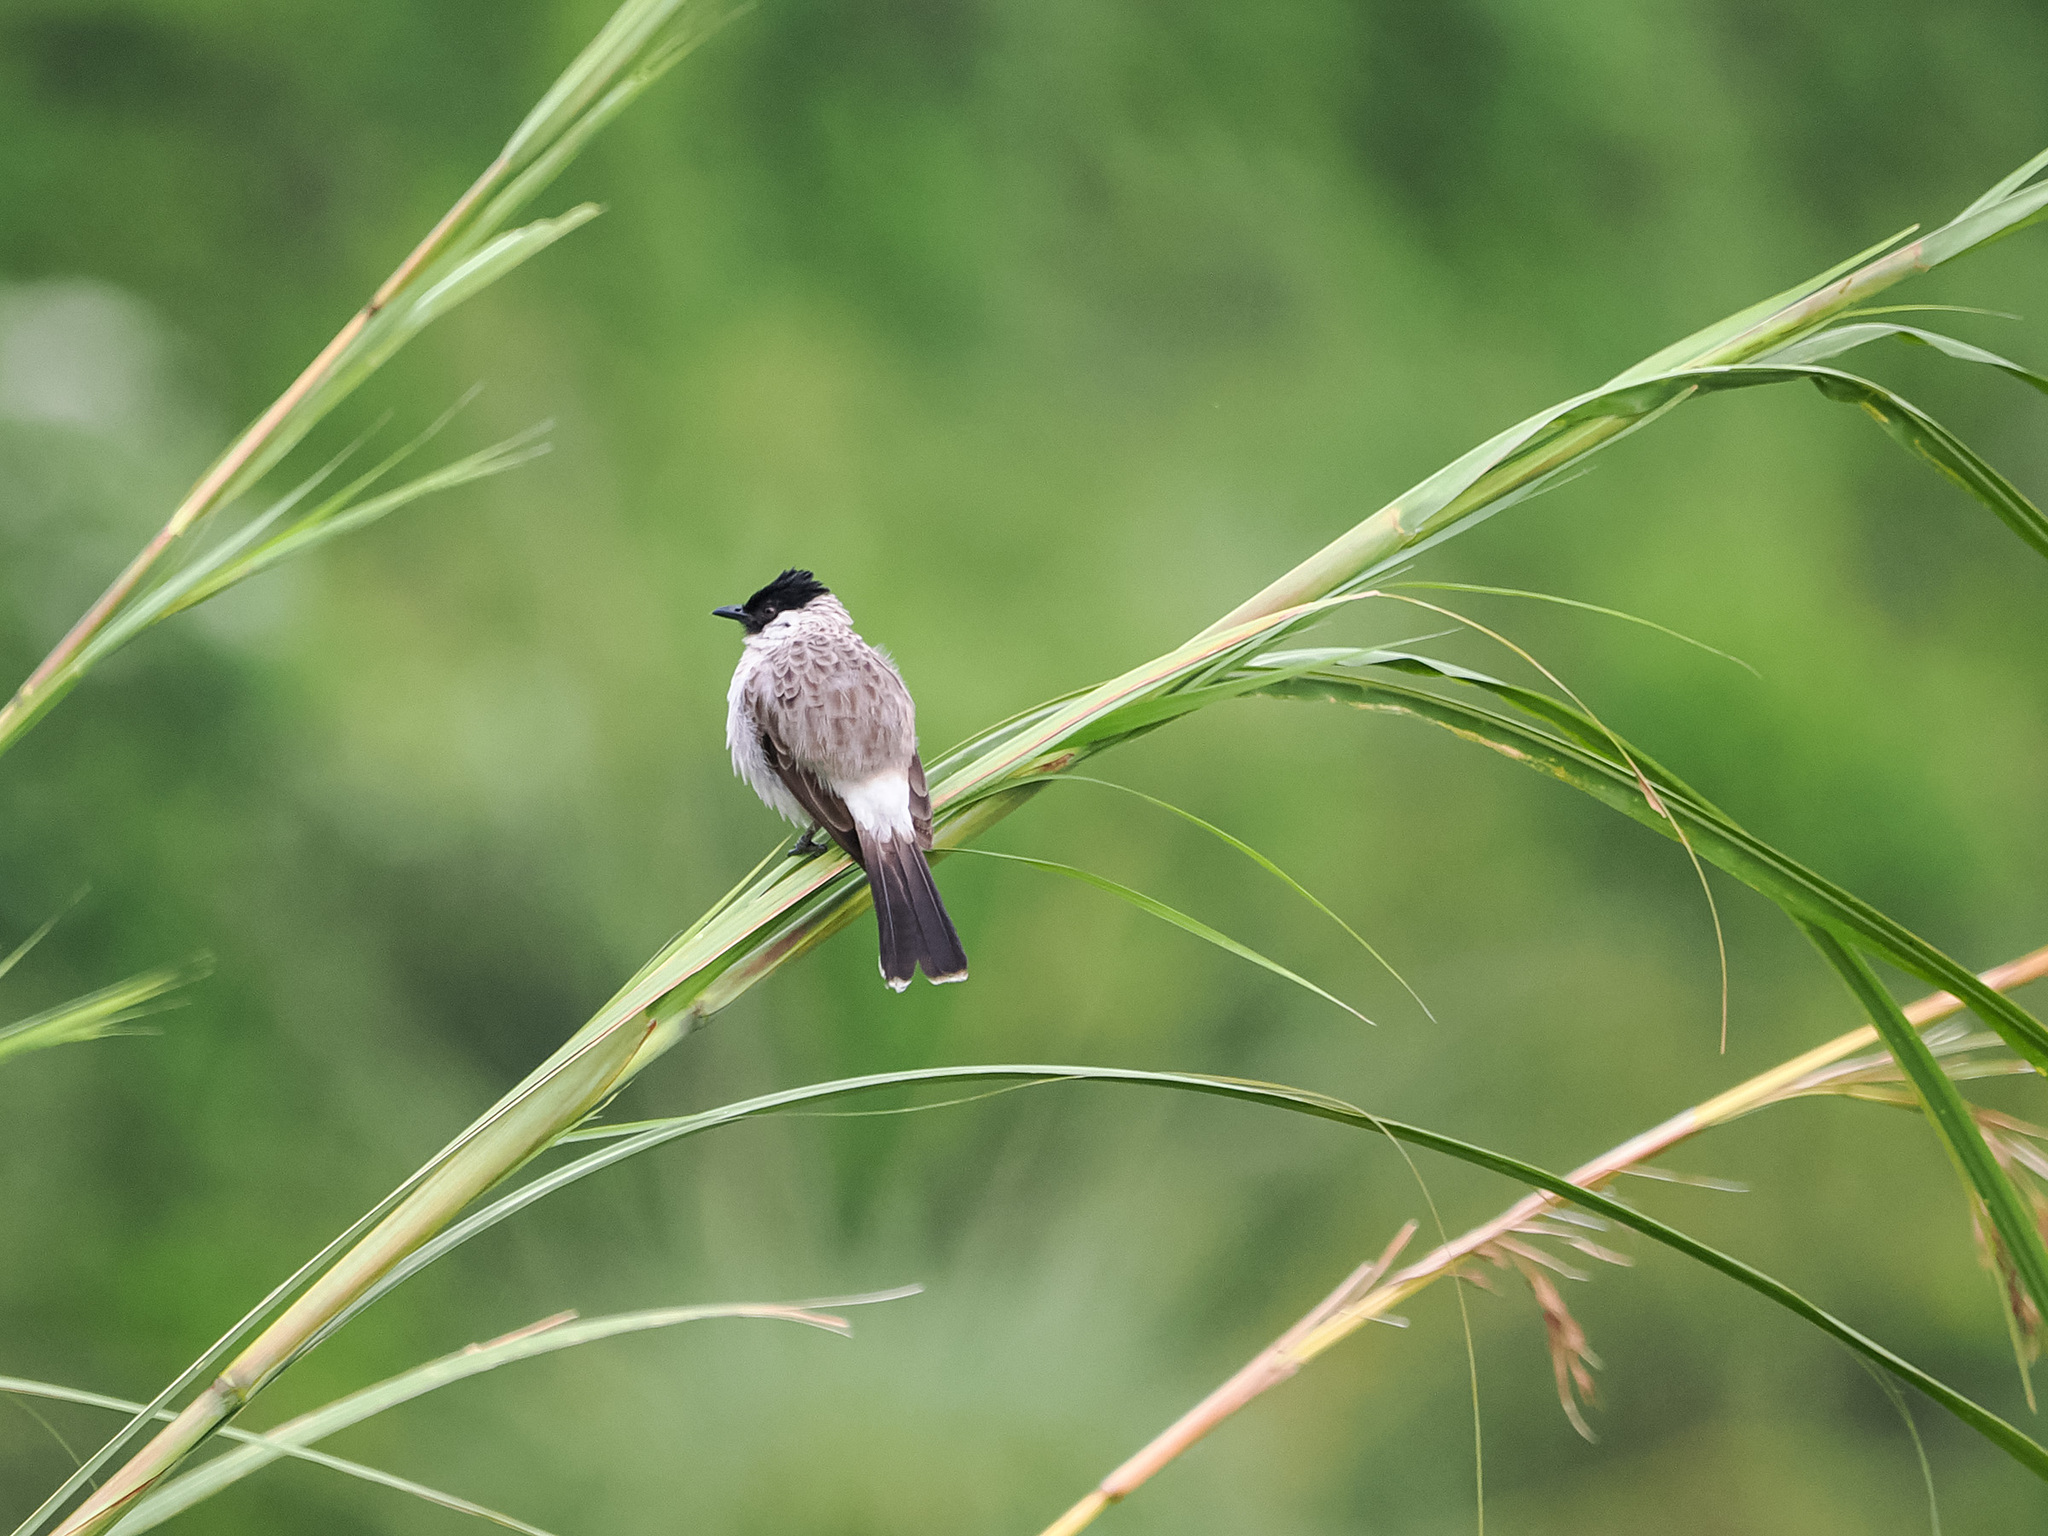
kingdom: Animalia
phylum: Chordata
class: Aves
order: Passeriformes
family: Pycnonotidae
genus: Pycnonotus
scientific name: Pycnonotus aurigaster
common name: Sooty-headed bulbul
